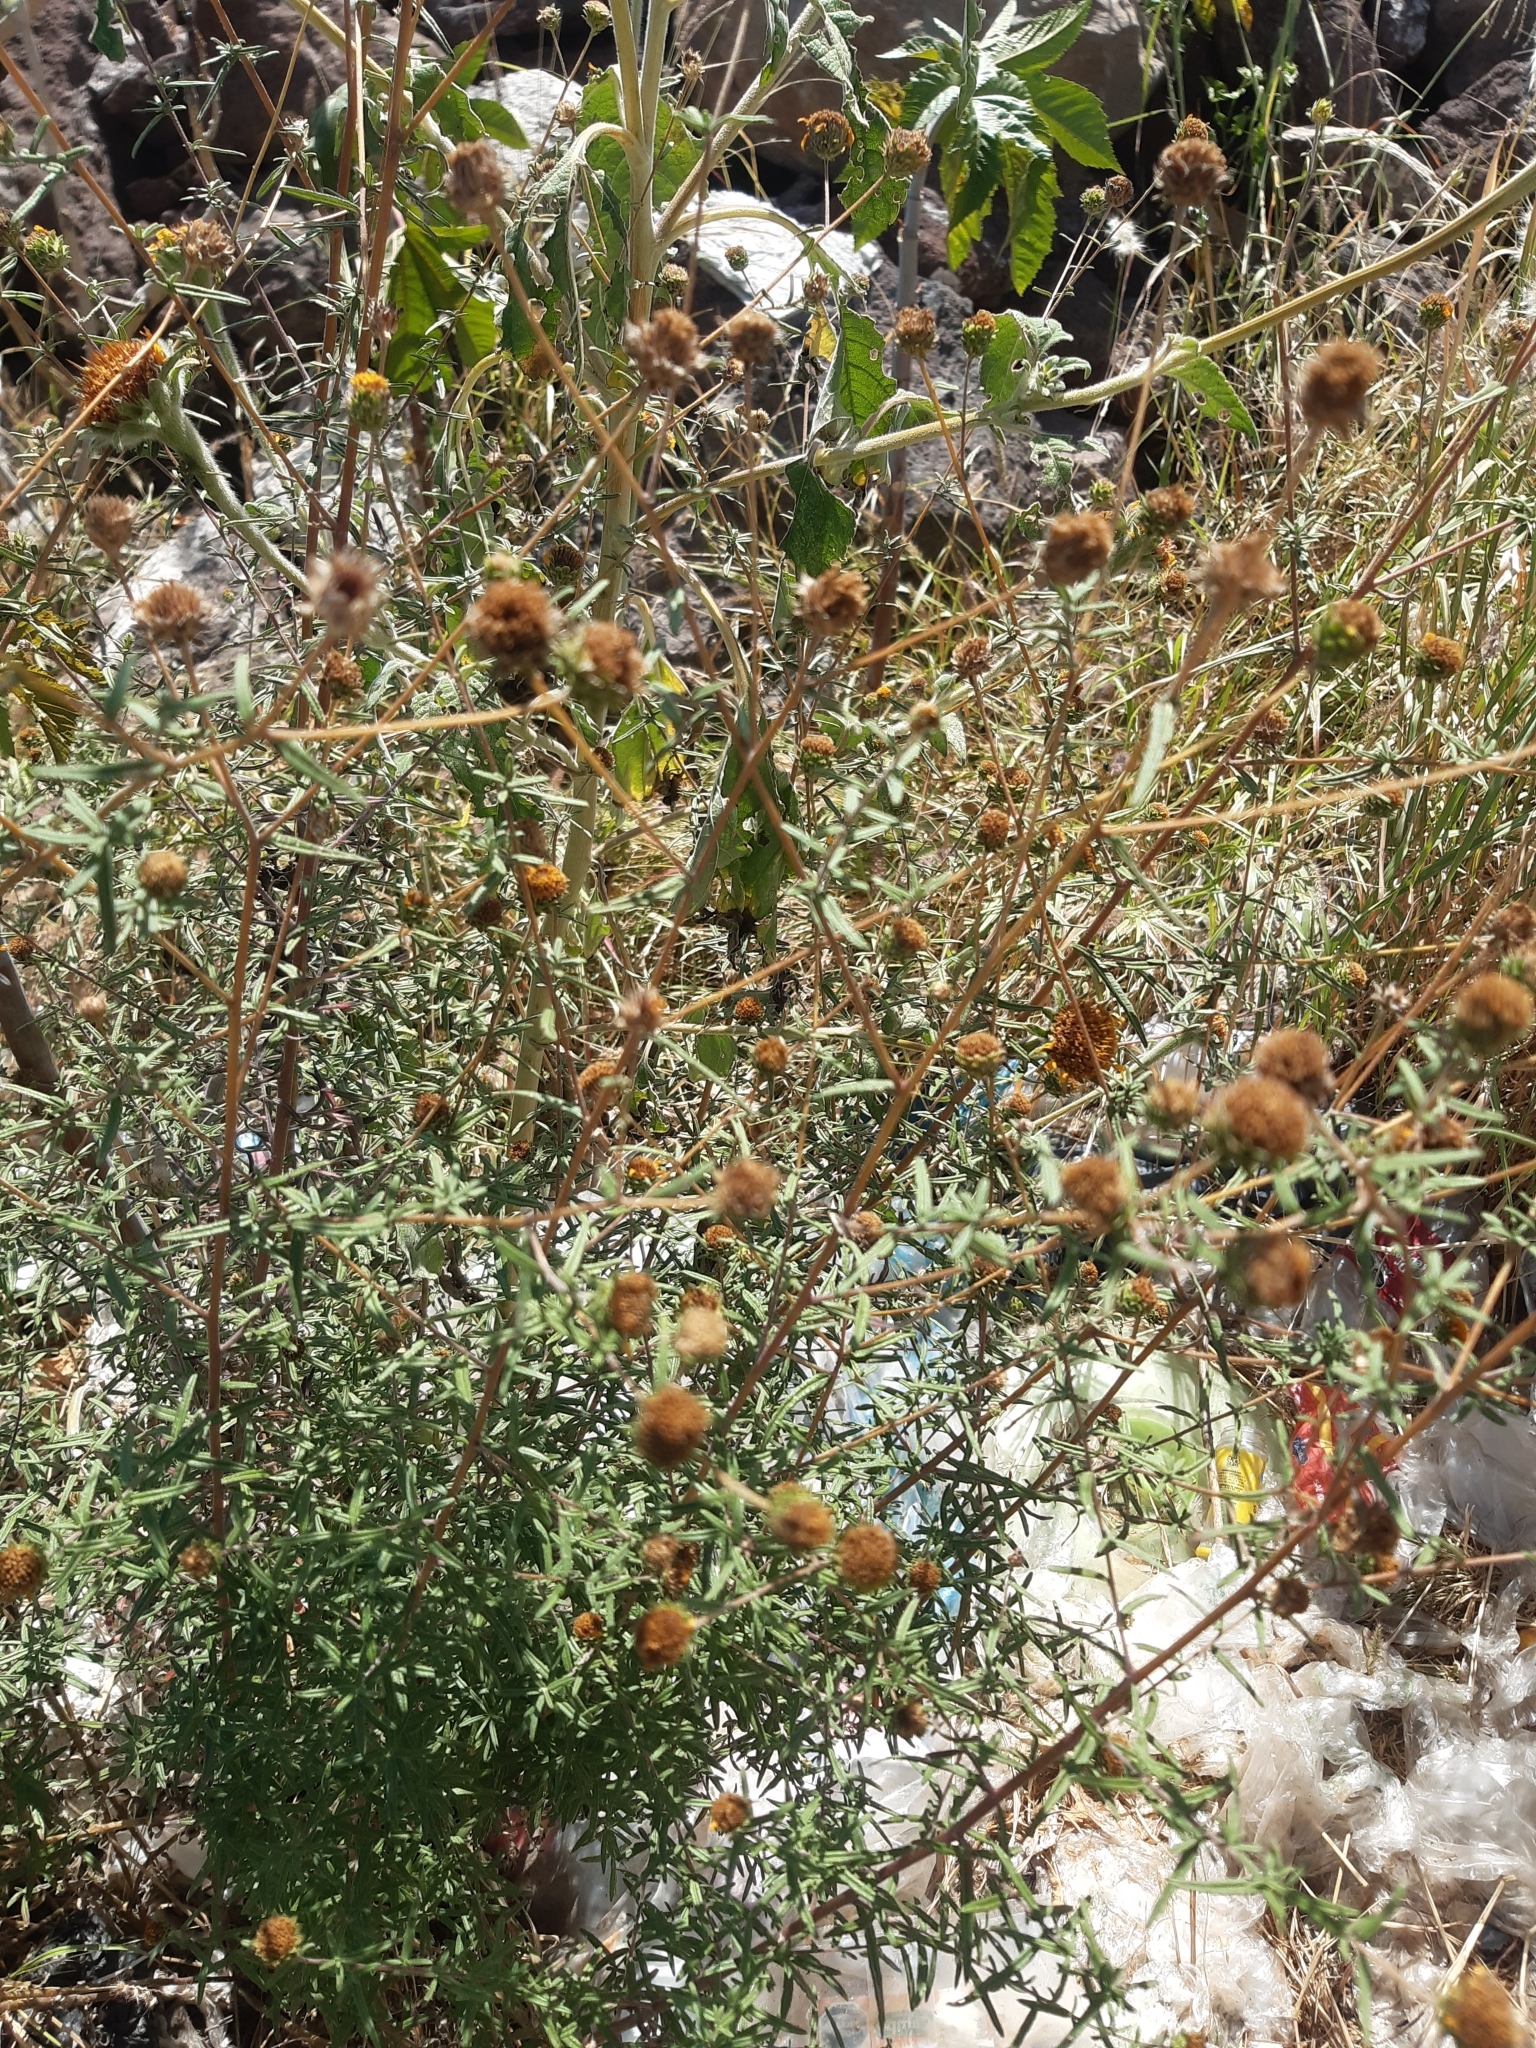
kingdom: Plantae
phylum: Tracheophyta
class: Magnoliopsida
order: Asterales
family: Asteraceae
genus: Aldama
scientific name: Aldama linearis
